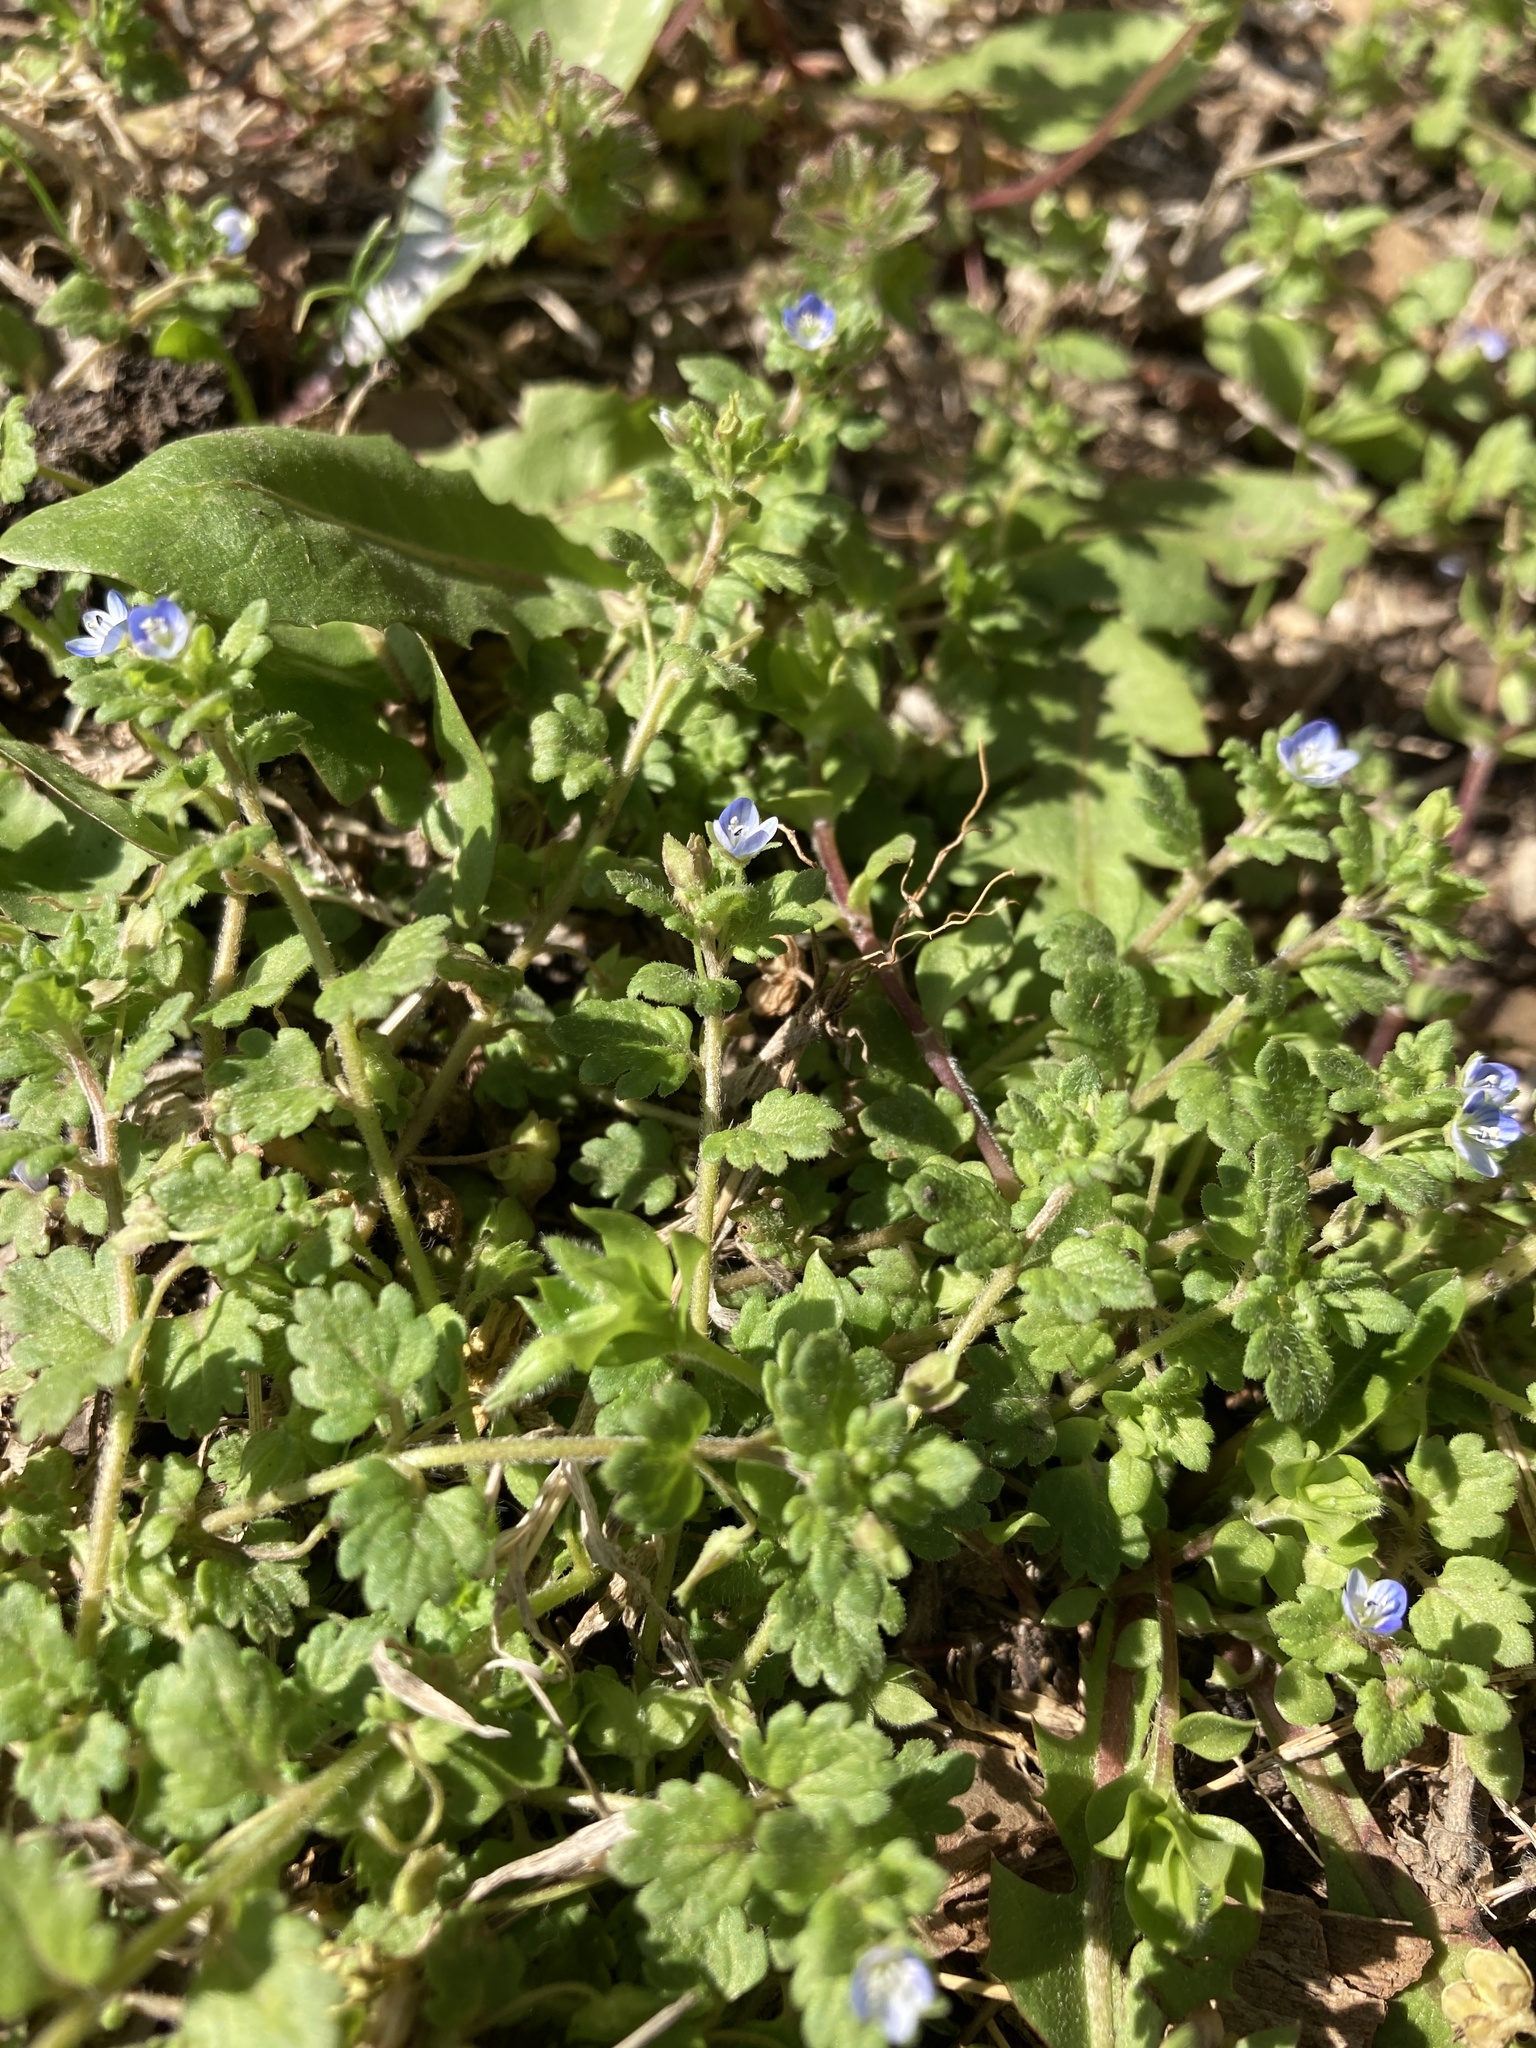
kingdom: Plantae
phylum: Tracheophyta
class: Magnoliopsida
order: Lamiales
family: Plantaginaceae
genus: Veronica
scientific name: Veronica polita
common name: Grey field-speedwell
